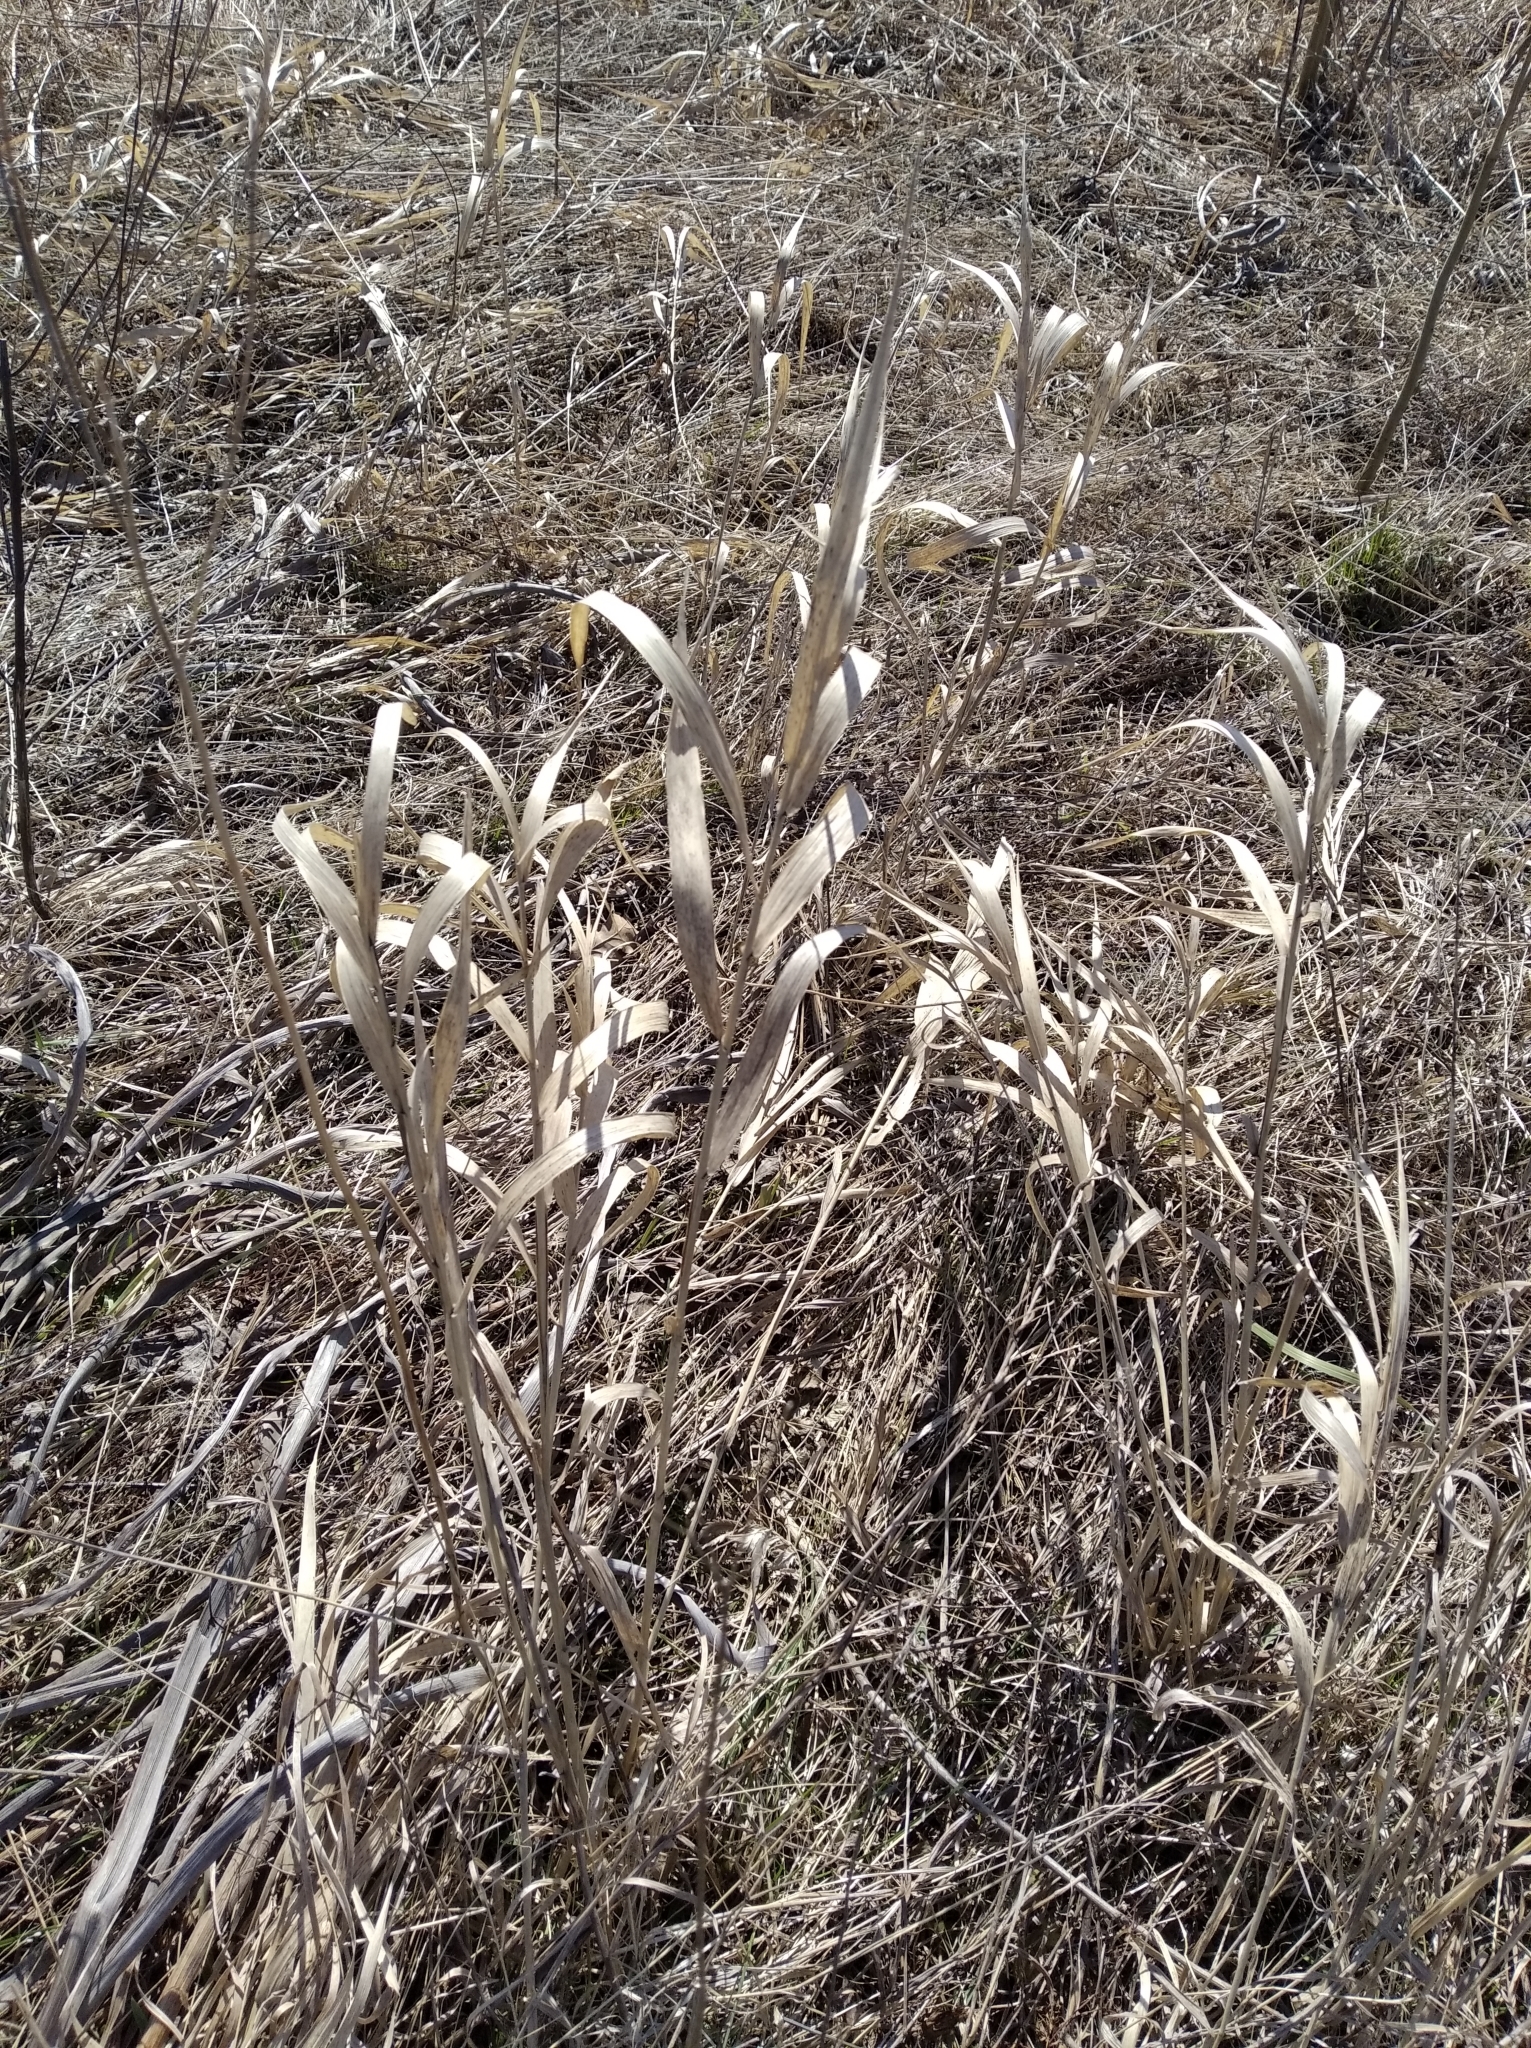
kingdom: Plantae
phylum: Tracheophyta
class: Liliopsida
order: Poales
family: Poaceae
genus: Bromus
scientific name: Bromus inermis
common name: Smooth brome
